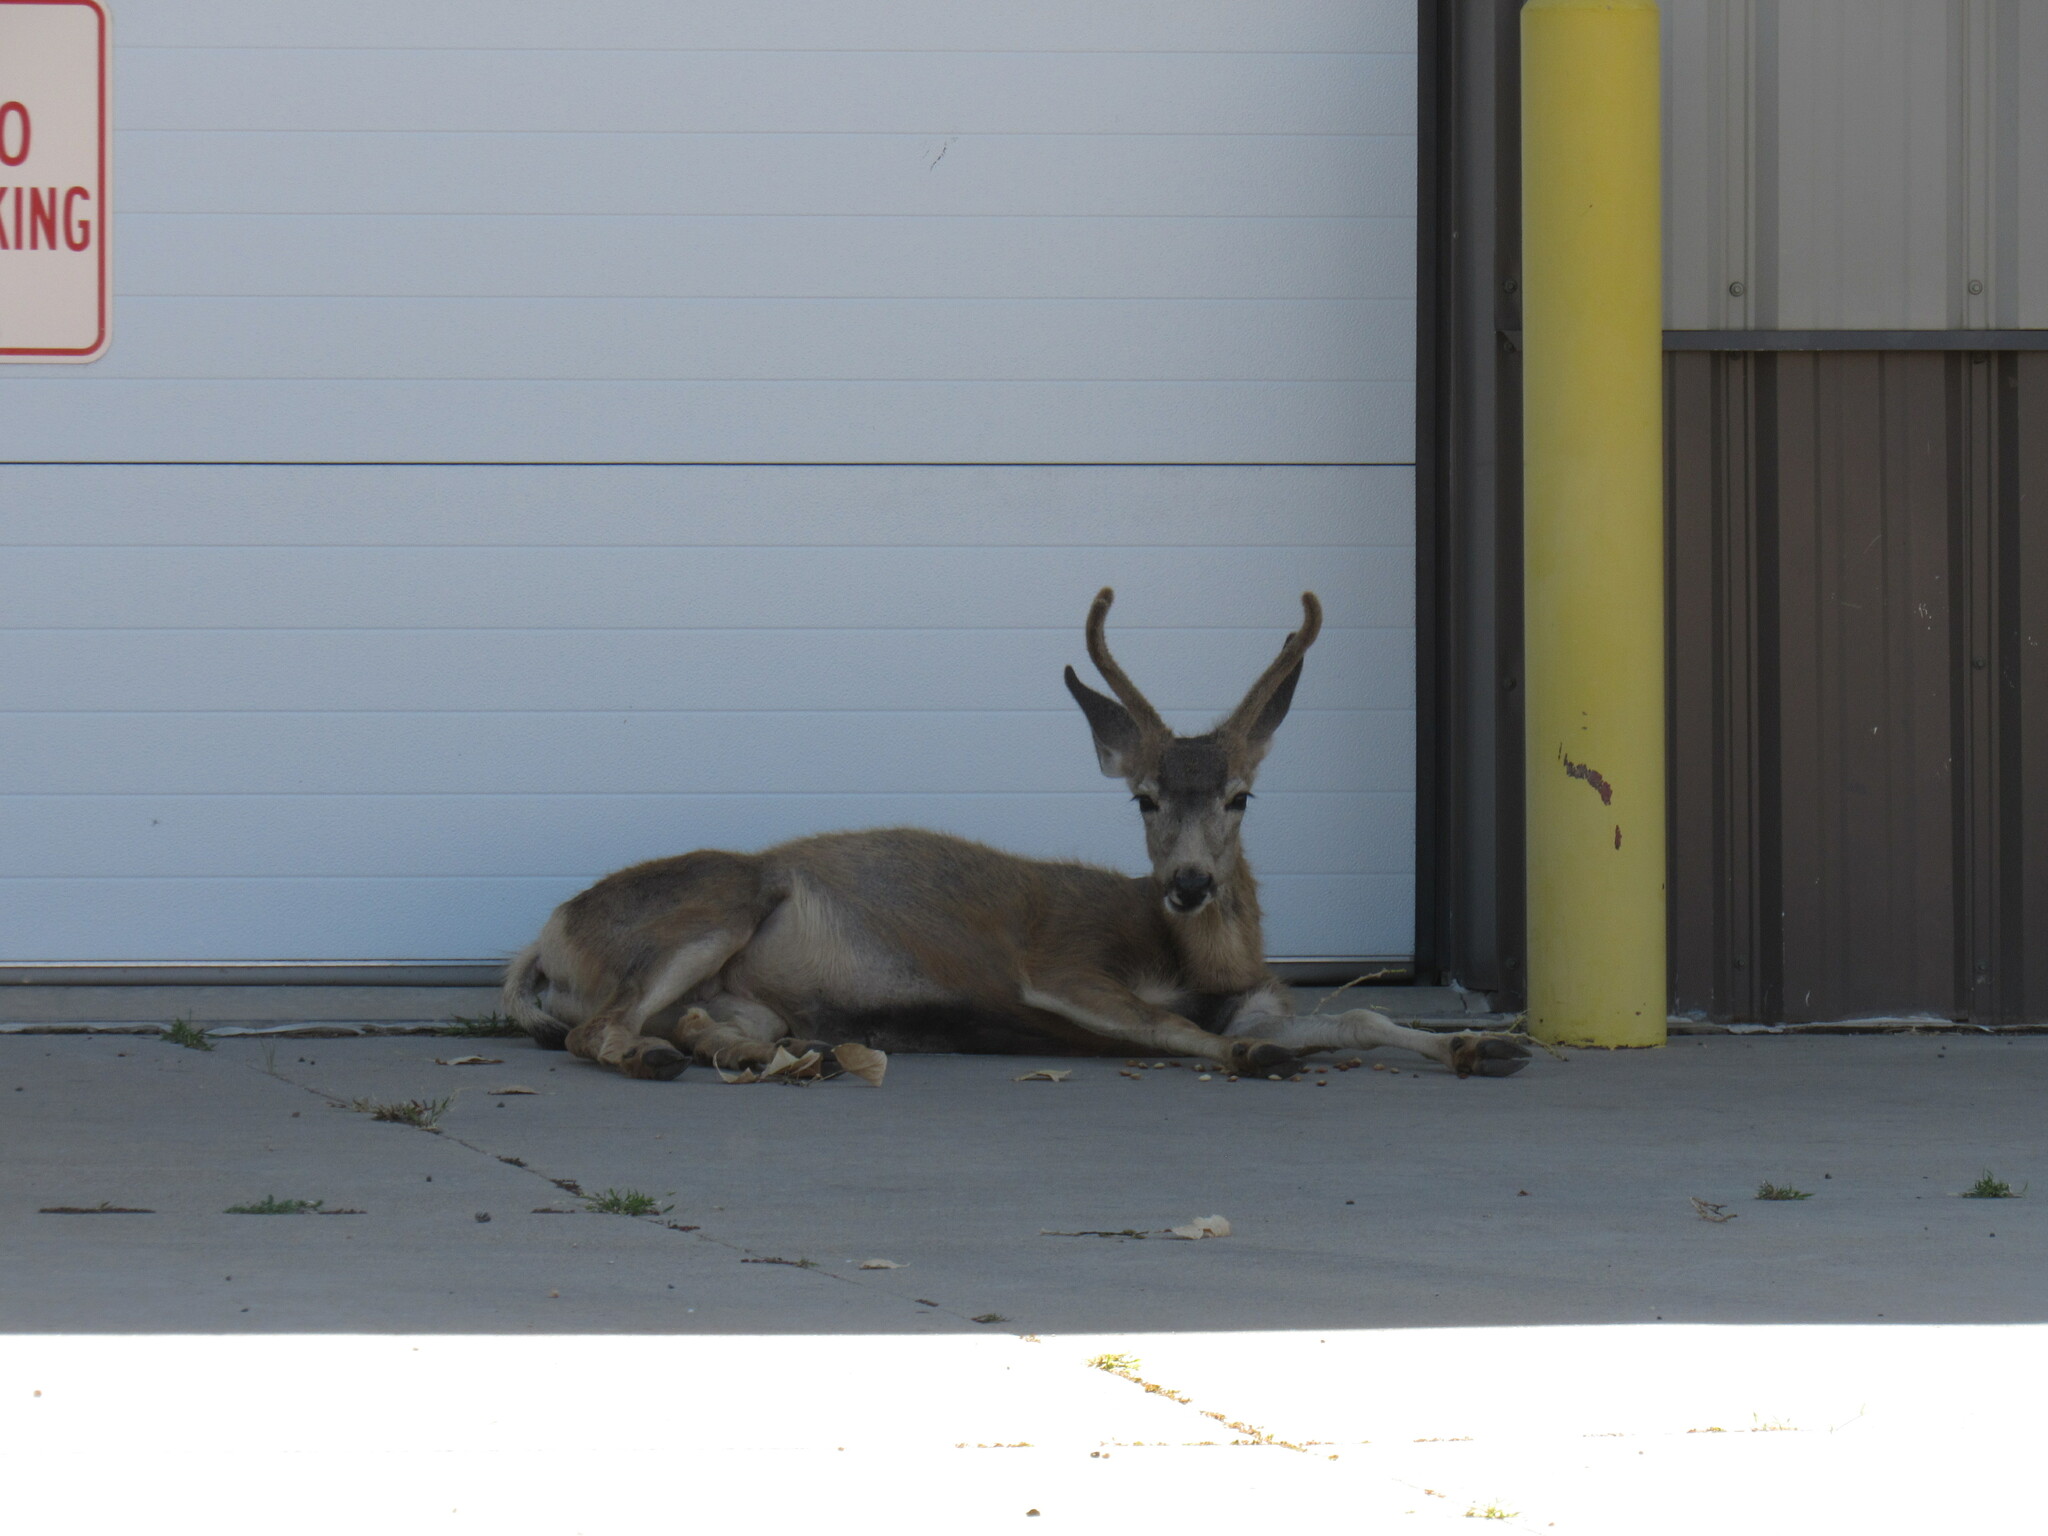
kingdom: Animalia
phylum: Chordata
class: Mammalia
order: Artiodactyla
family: Cervidae
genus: Odocoileus
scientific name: Odocoileus hemionus
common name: Mule deer
